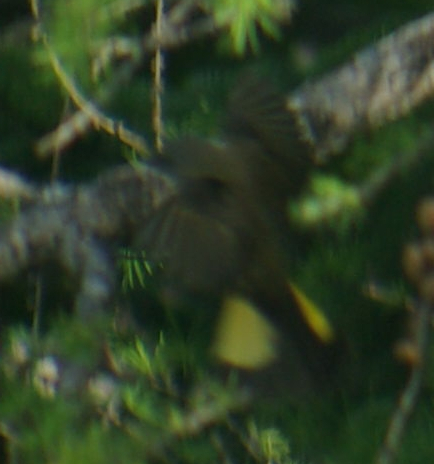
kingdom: Animalia
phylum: Chordata
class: Aves
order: Passeriformes
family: Parulidae
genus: Setophaga
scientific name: Setophaga ruticilla
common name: American redstart
